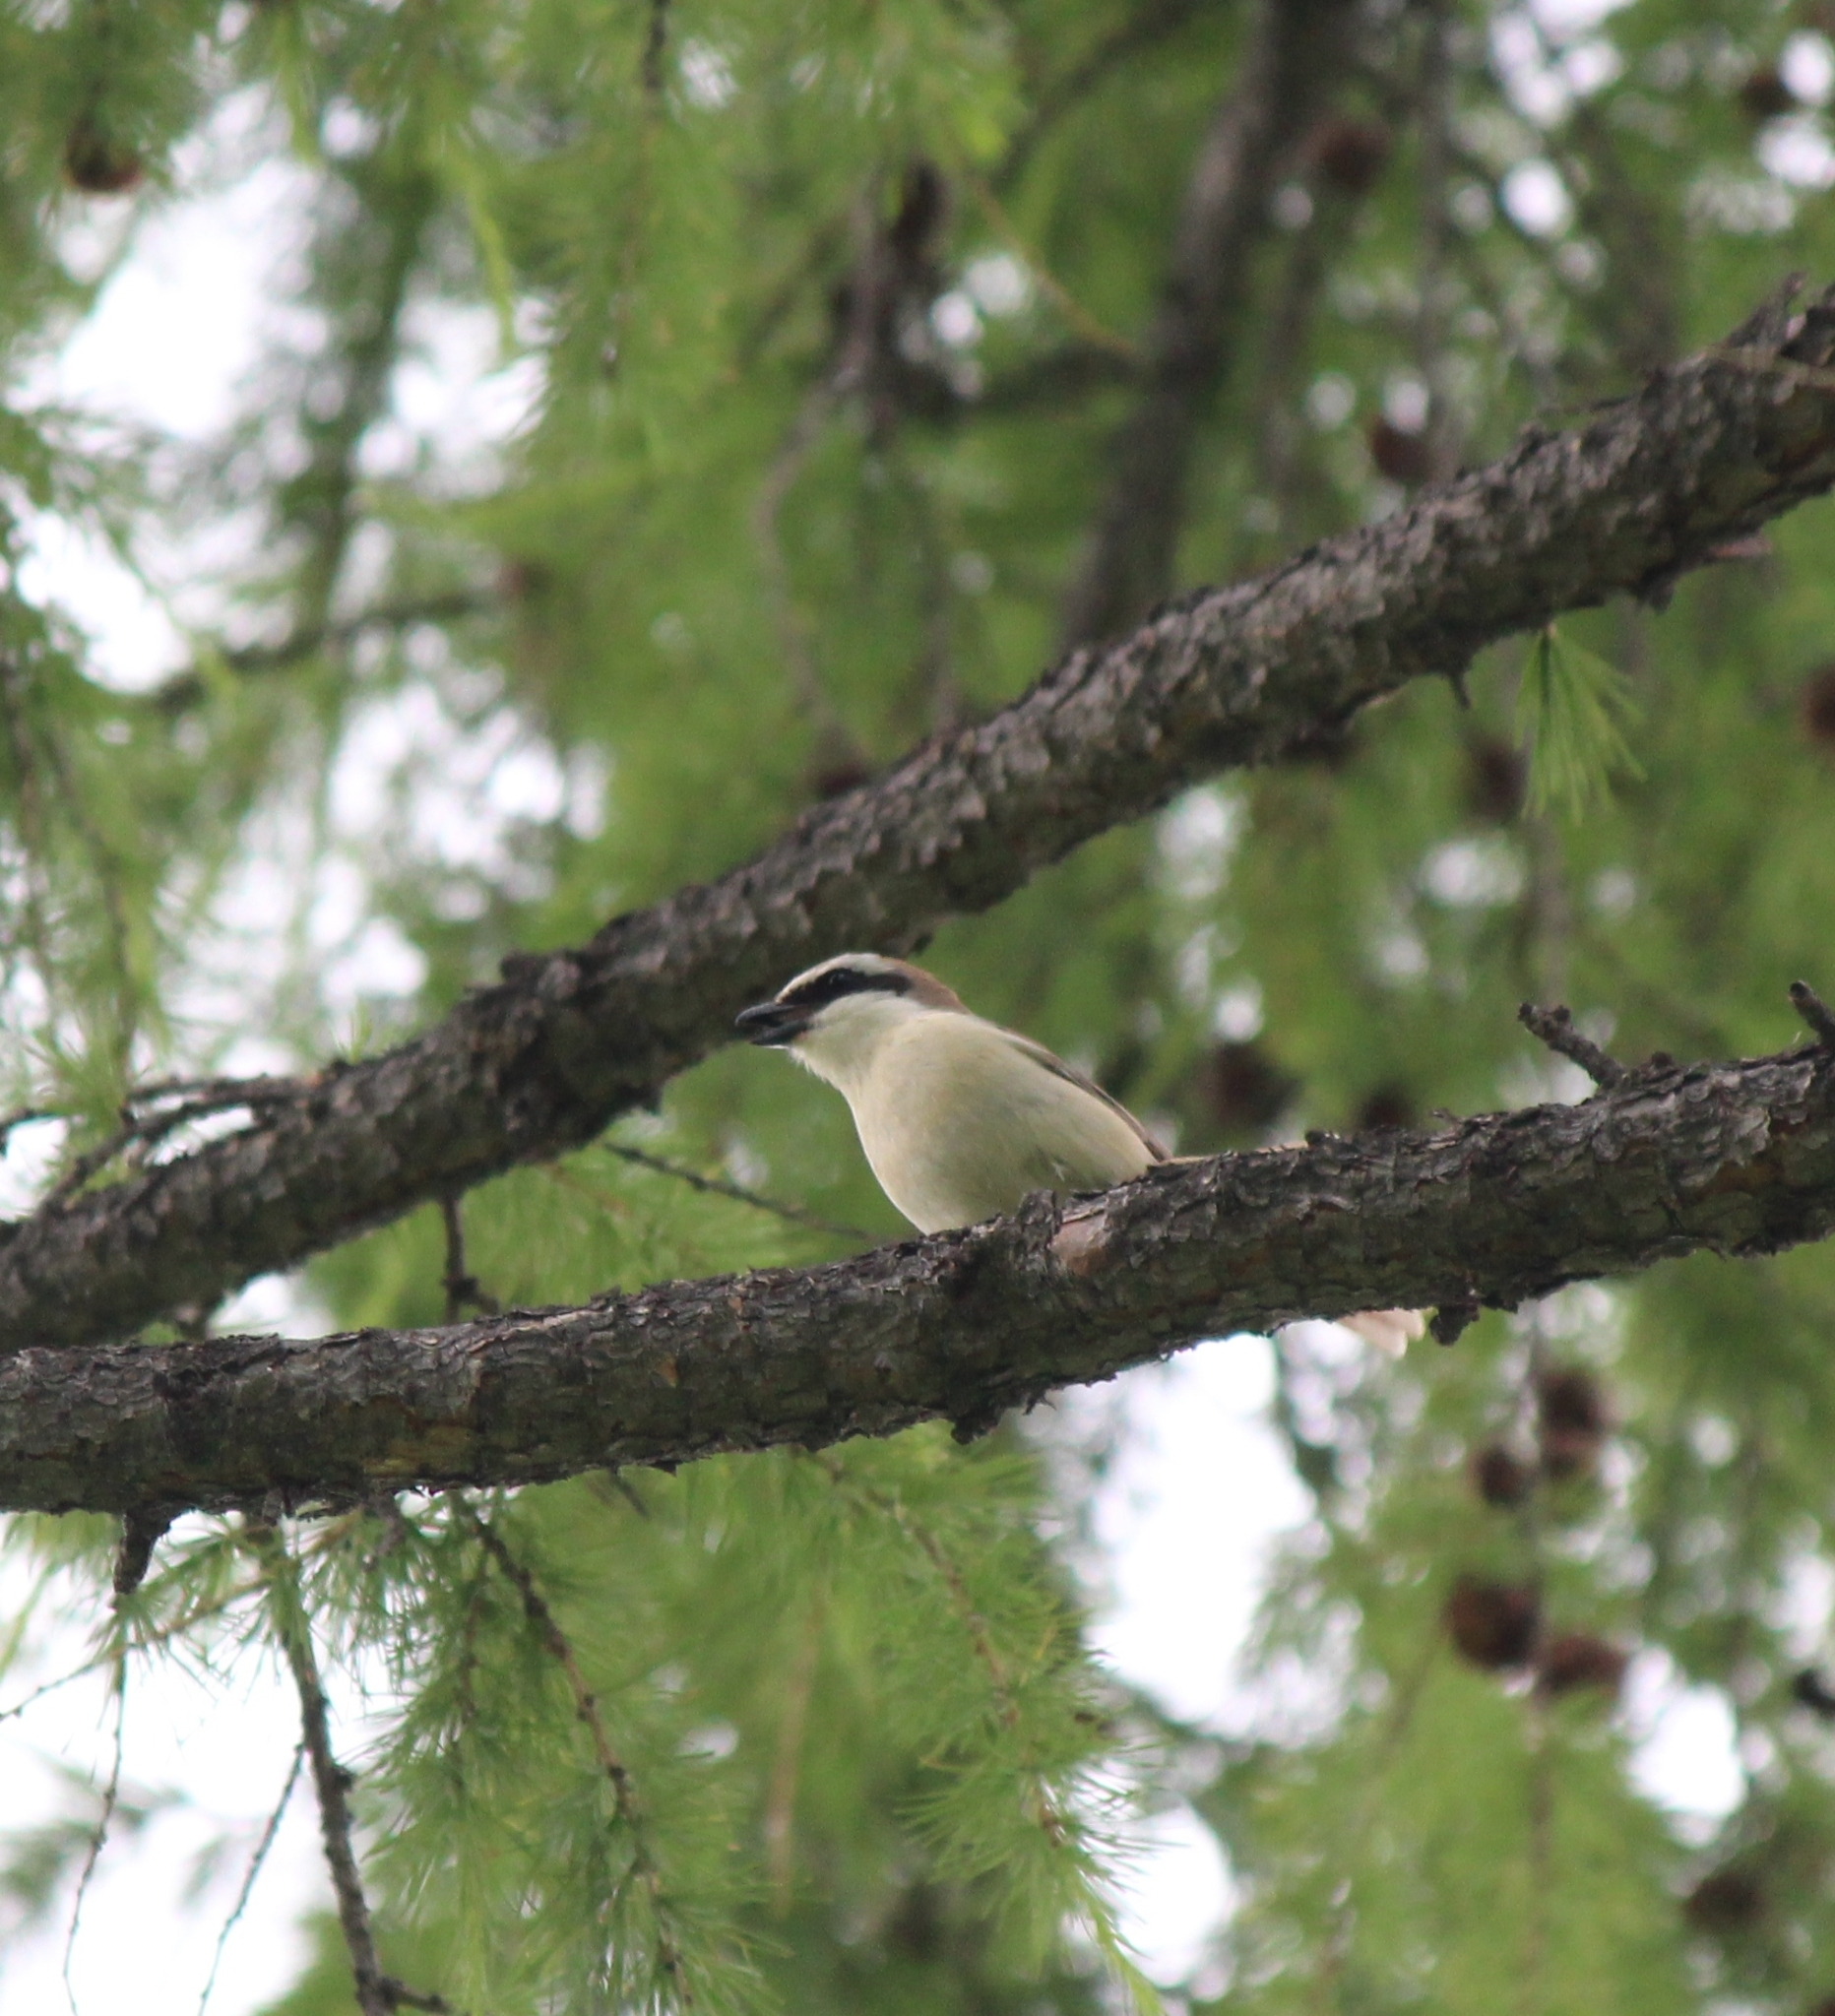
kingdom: Animalia
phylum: Chordata
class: Aves
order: Passeriformes
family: Laniidae
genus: Lanius
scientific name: Lanius cristatus
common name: Brown shrike
